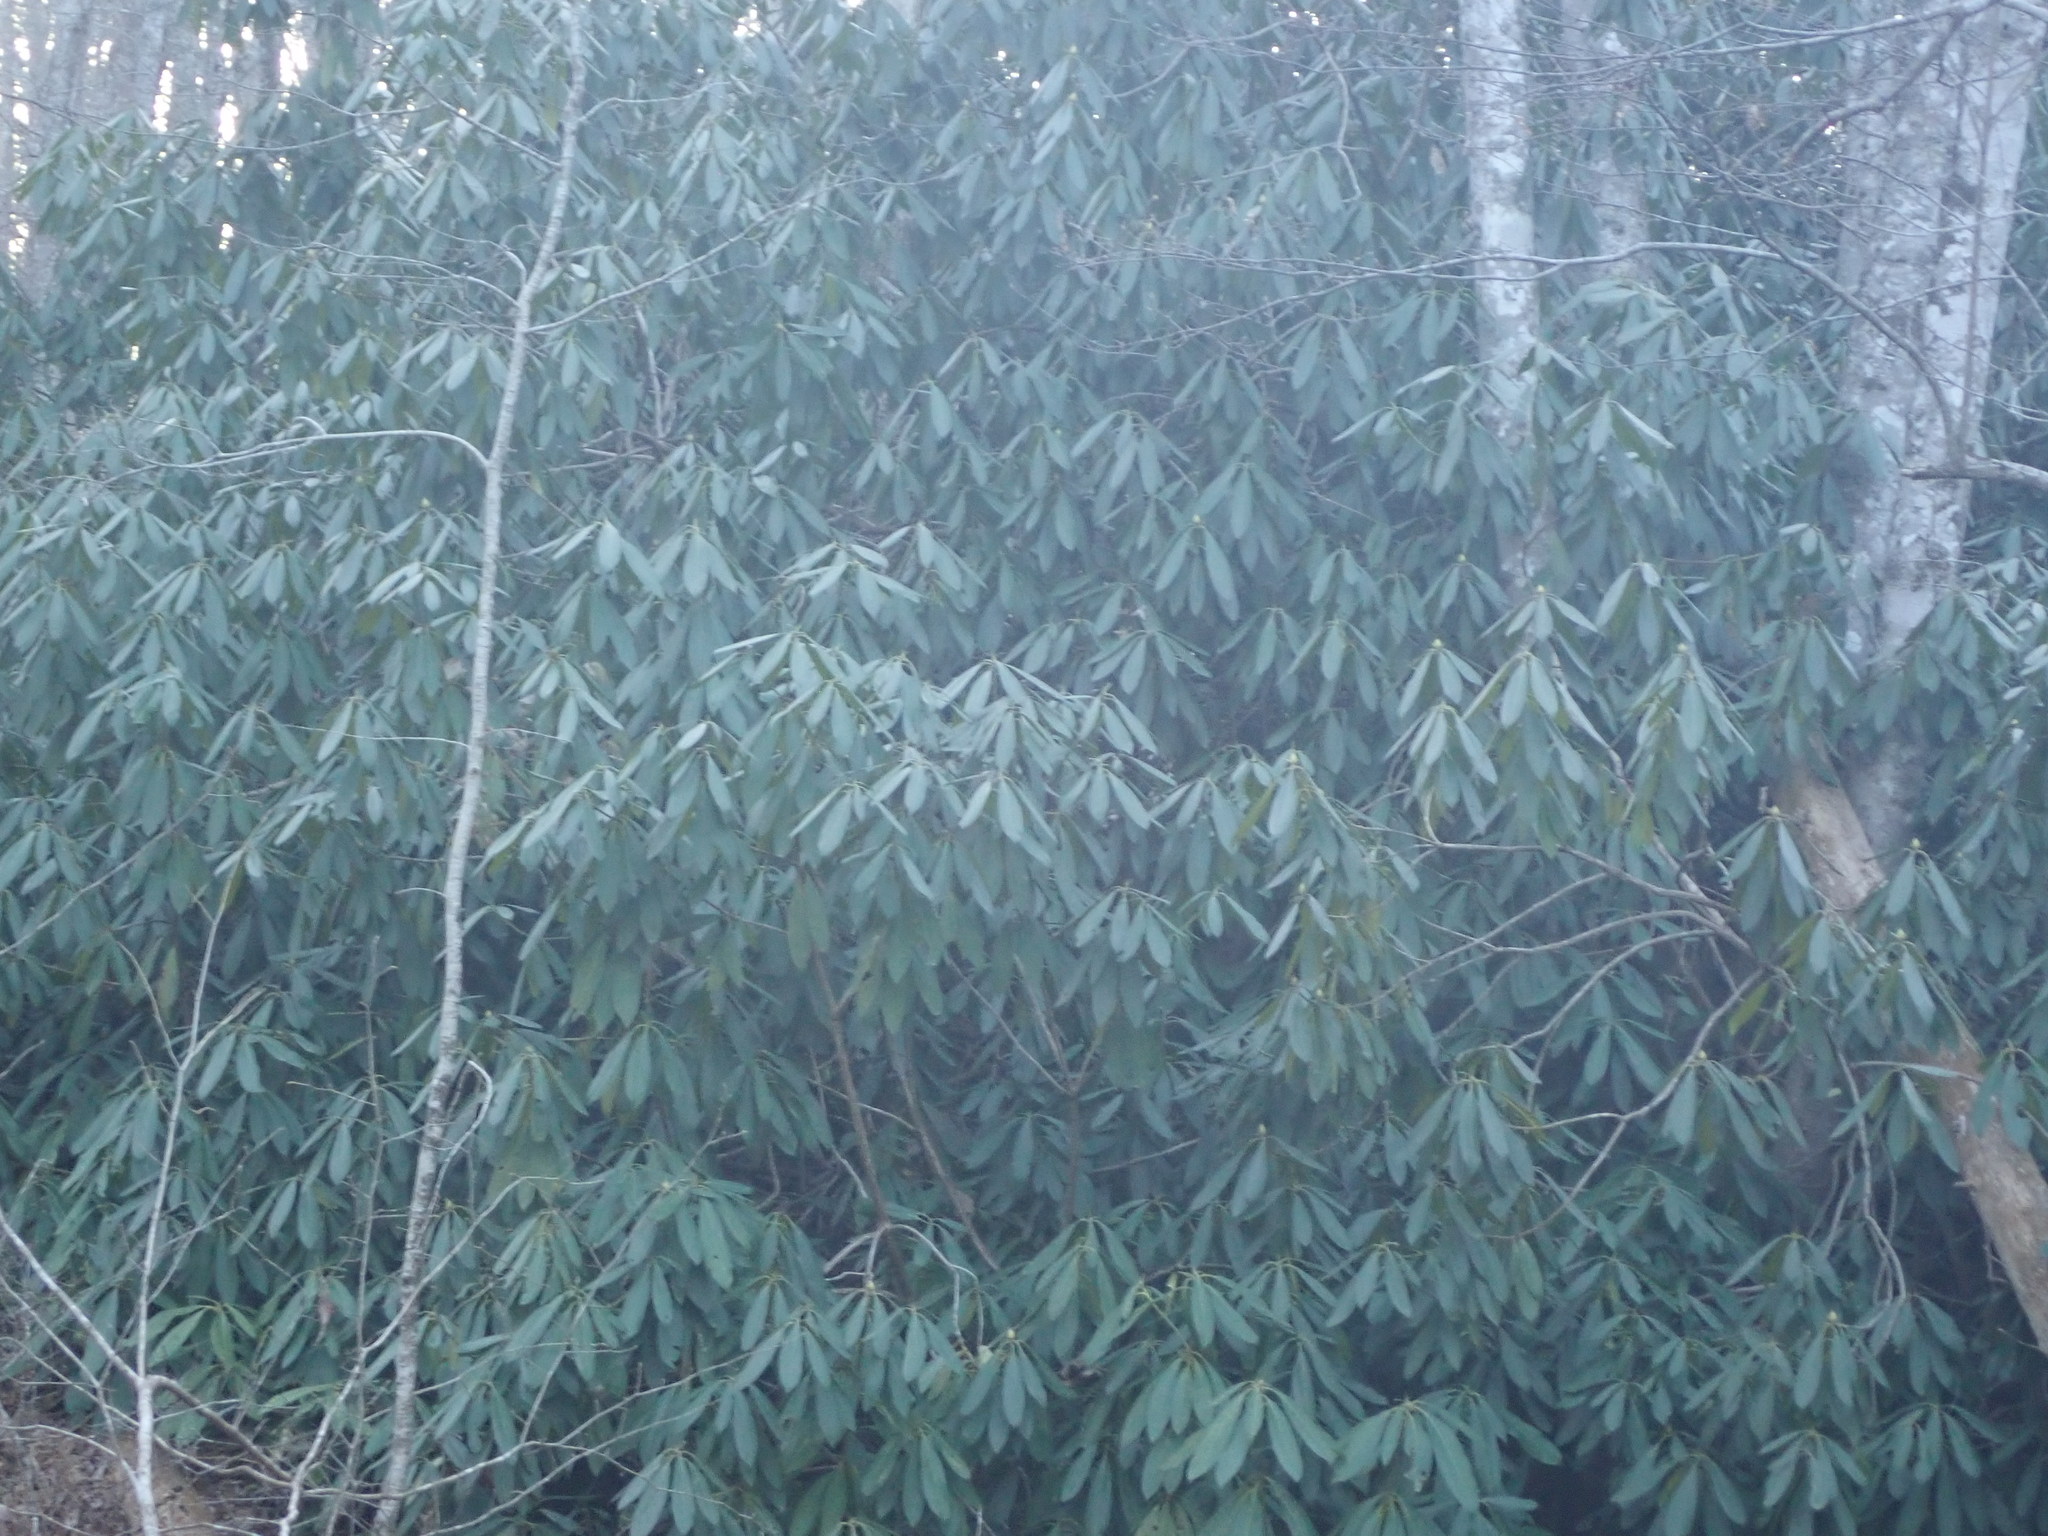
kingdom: Plantae
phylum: Tracheophyta
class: Magnoliopsida
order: Ericales
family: Ericaceae
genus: Rhododendron
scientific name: Rhododendron maximum
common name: Great rhododendron
